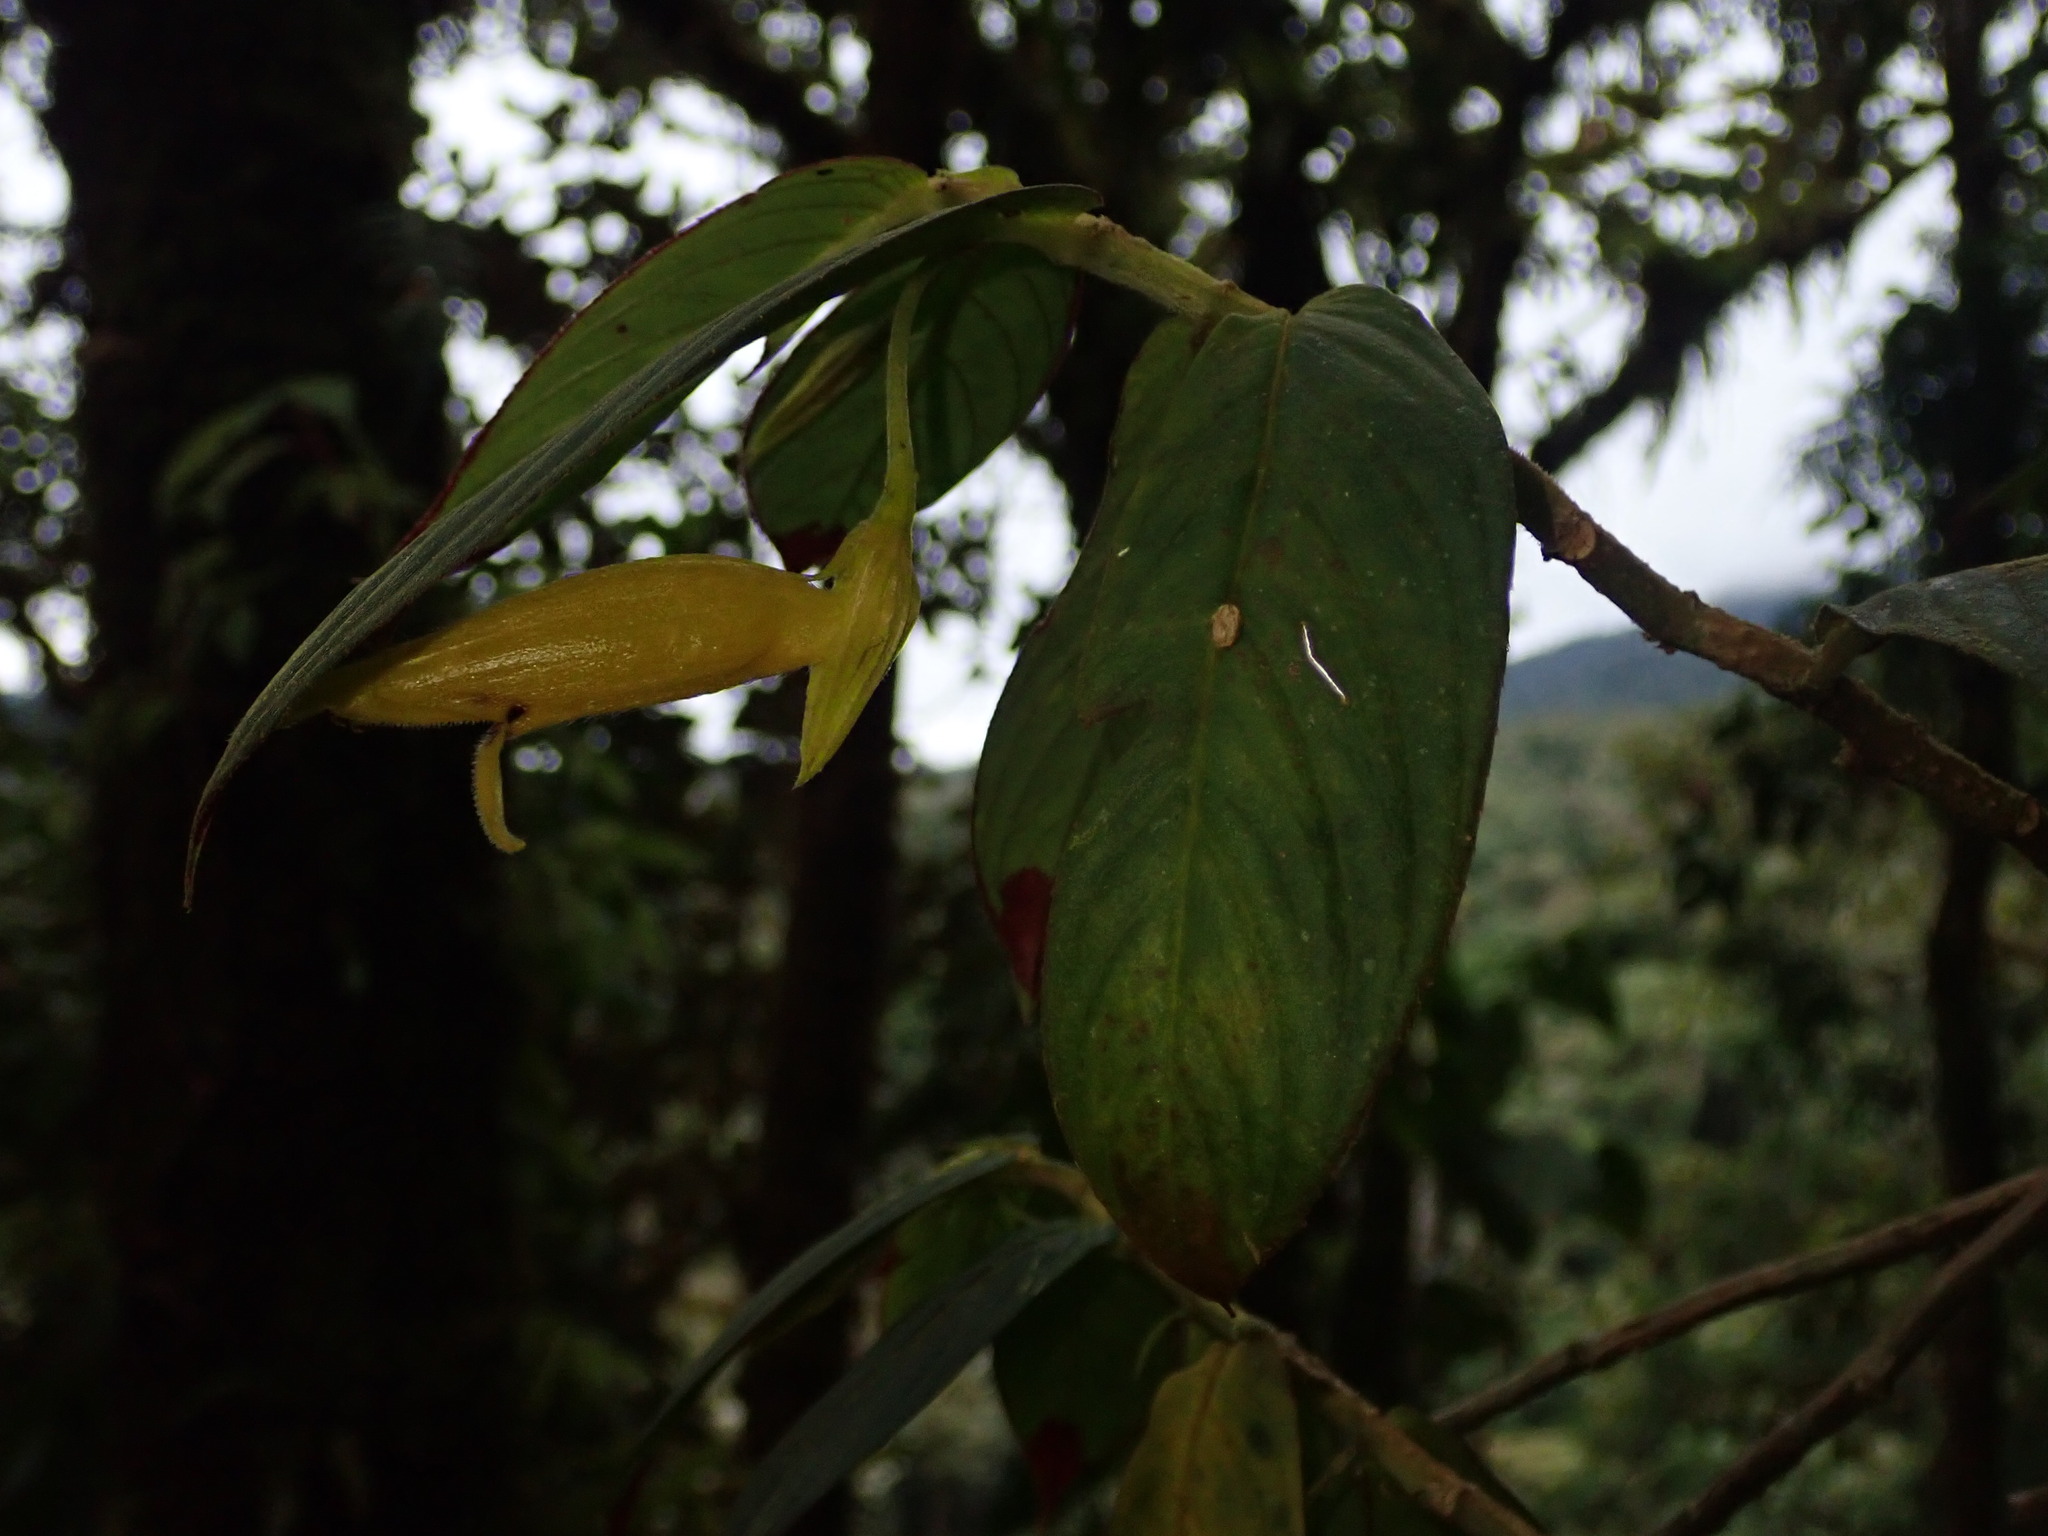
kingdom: Plantae
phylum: Tracheophyta
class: Magnoliopsida
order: Lamiales
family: Gesneriaceae
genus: Columnea
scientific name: Columnea ericae
